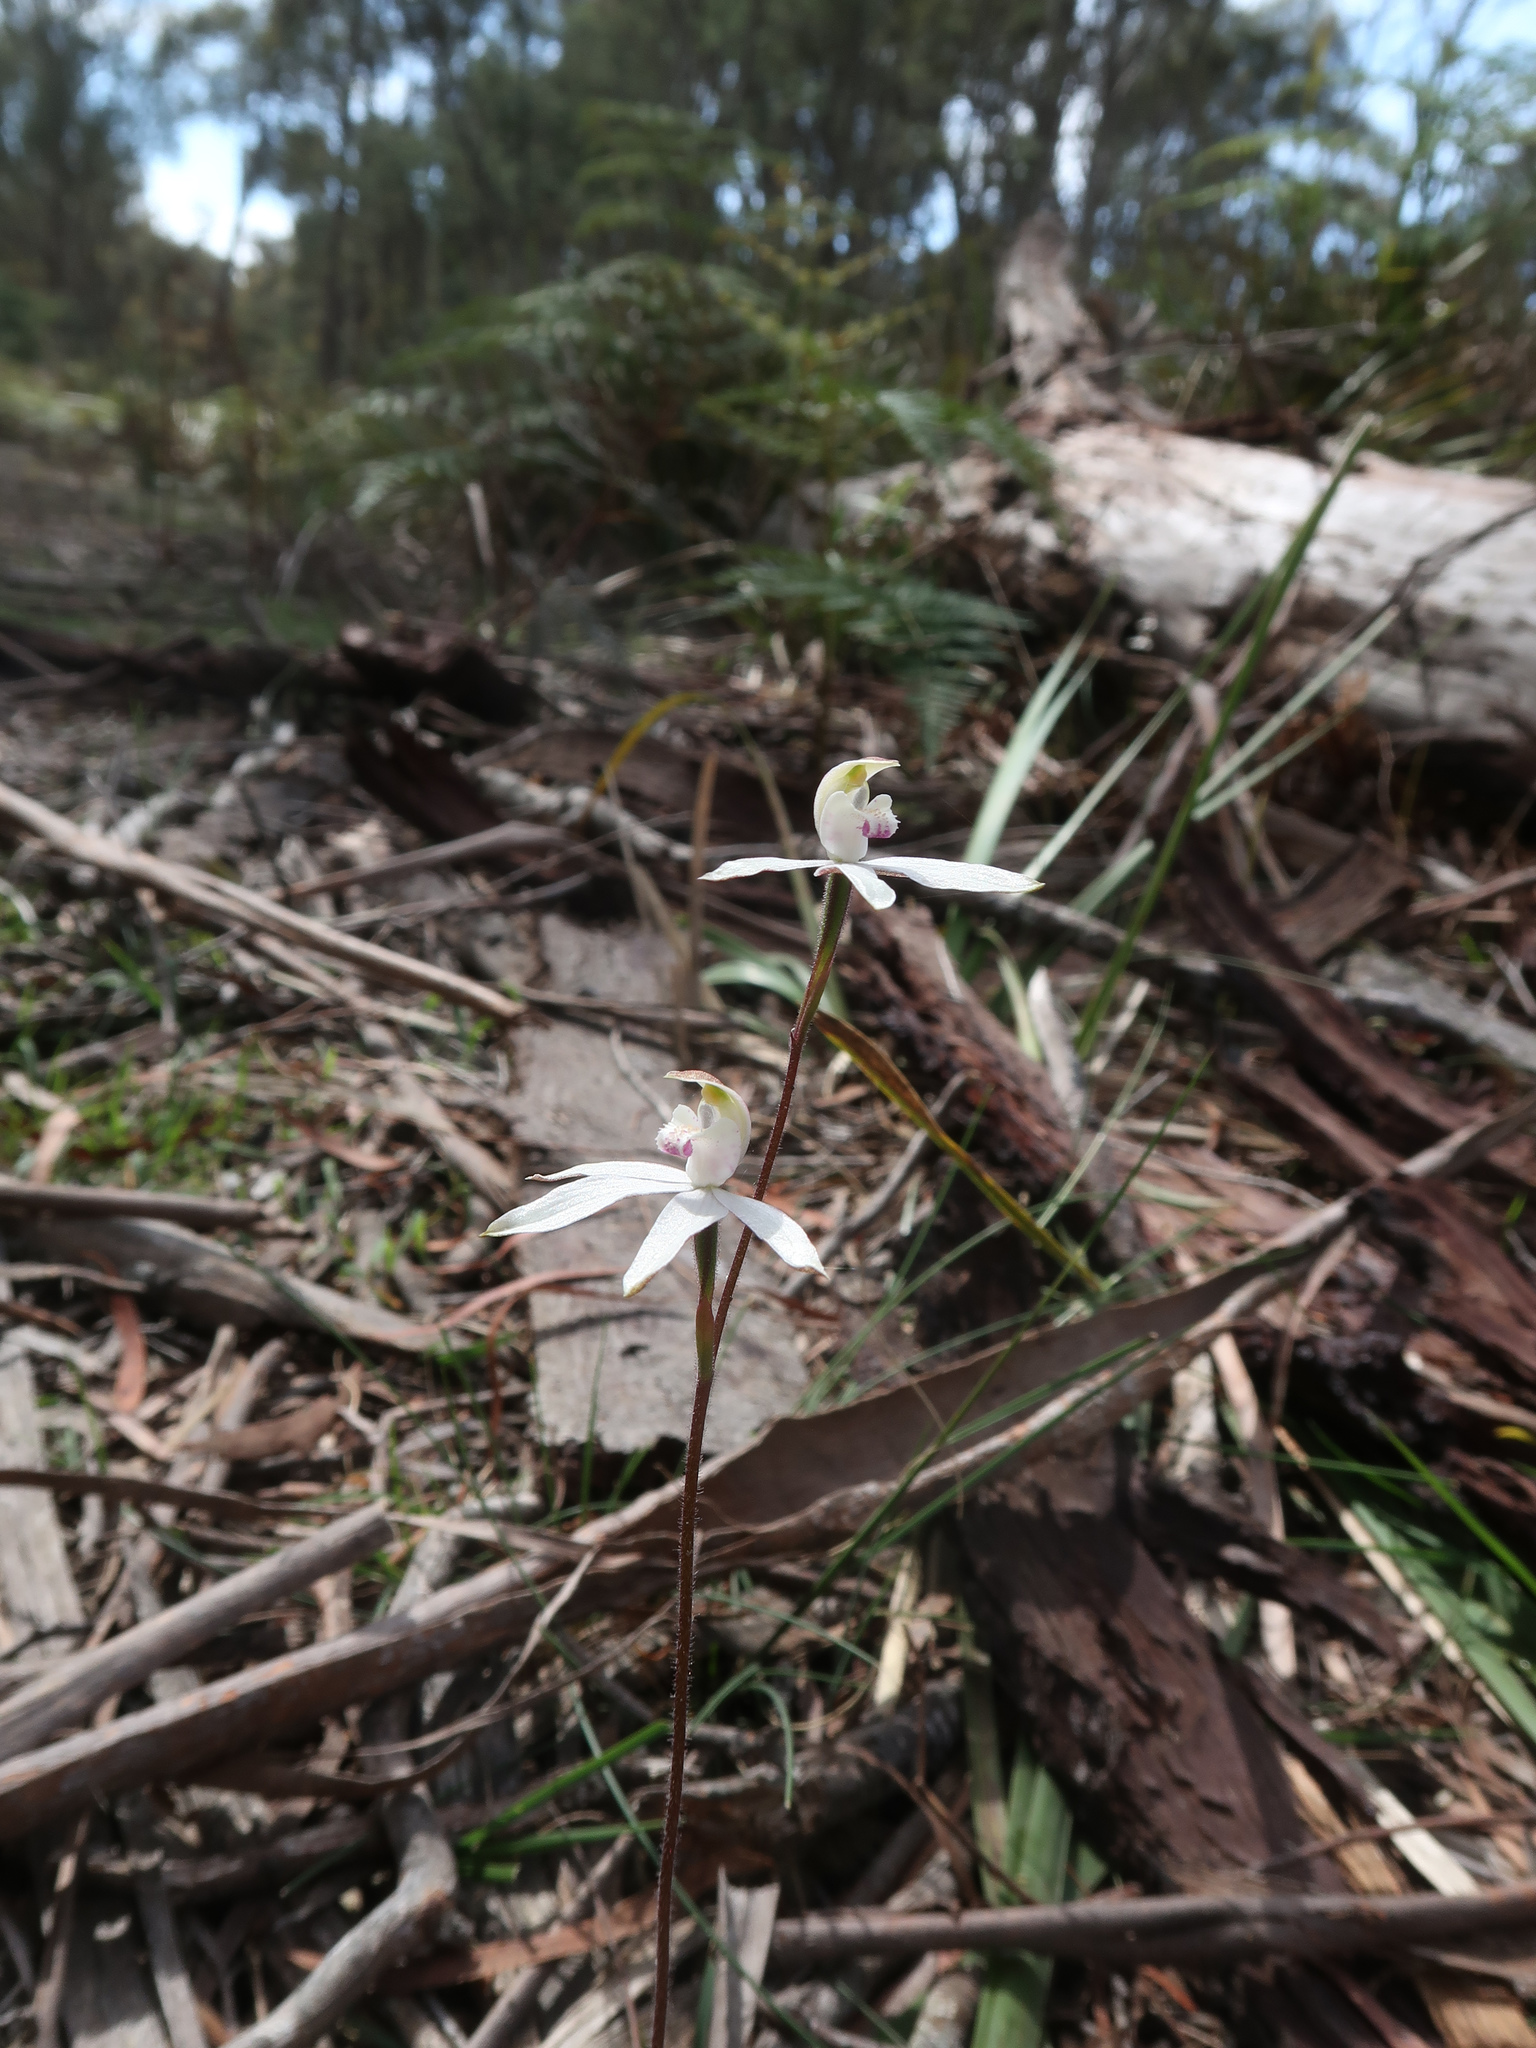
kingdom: Plantae
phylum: Tracheophyta
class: Liliopsida
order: Asparagales
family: Orchidaceae
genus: Caladenia
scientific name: Caladenia gracilis
